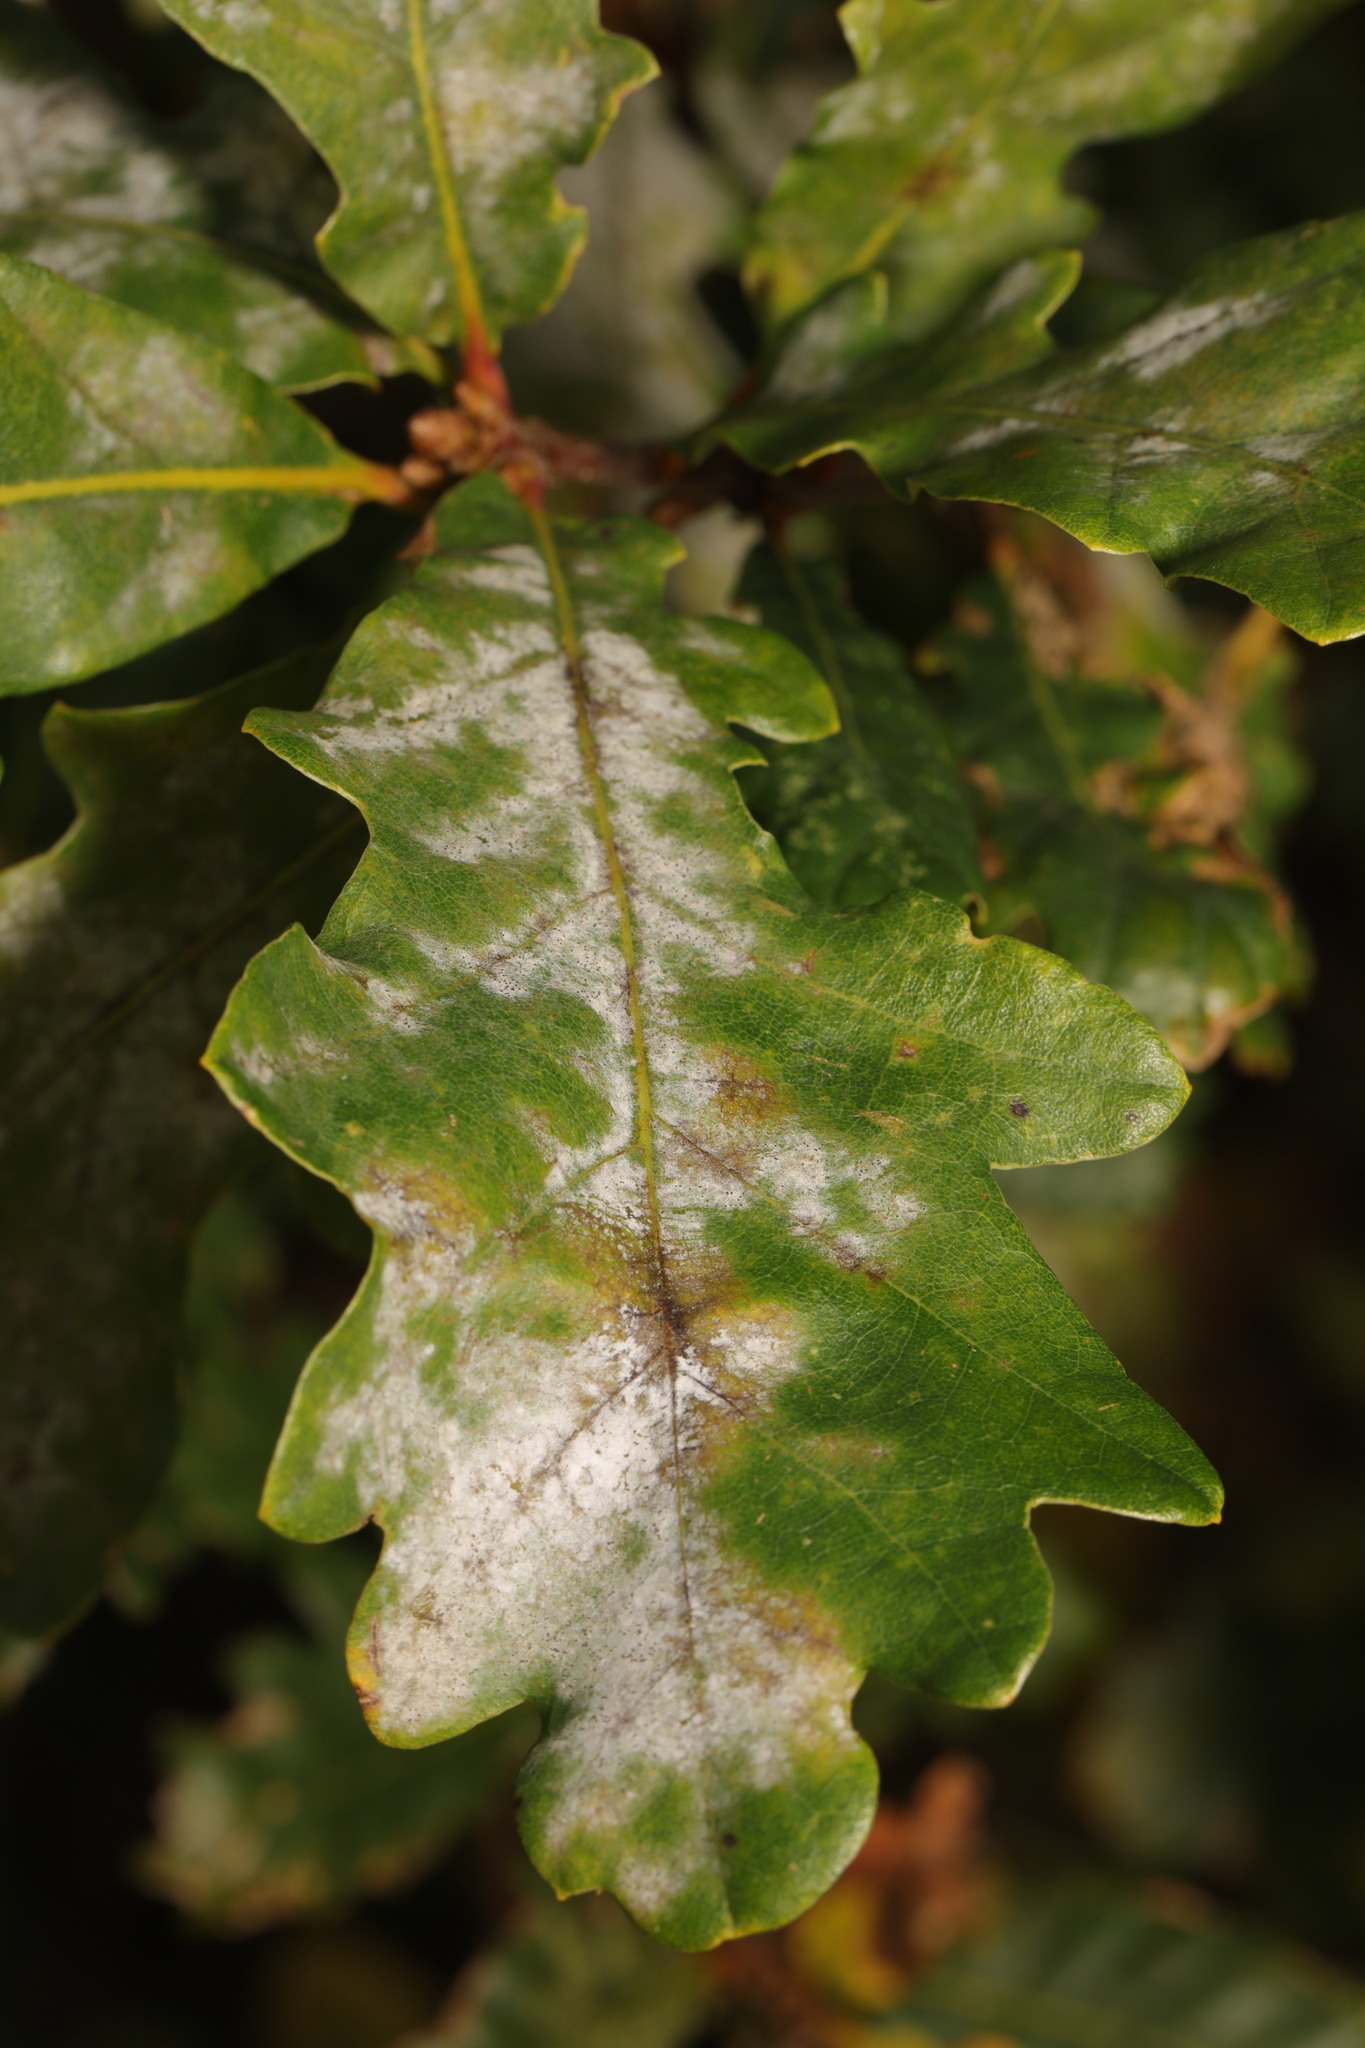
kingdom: Fungi
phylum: Ascomycota
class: Leotiomycetes
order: Helotiales
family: Erysiphaceae
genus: Erysiphe
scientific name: Erysiphe alphitoides
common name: Oak mildew
